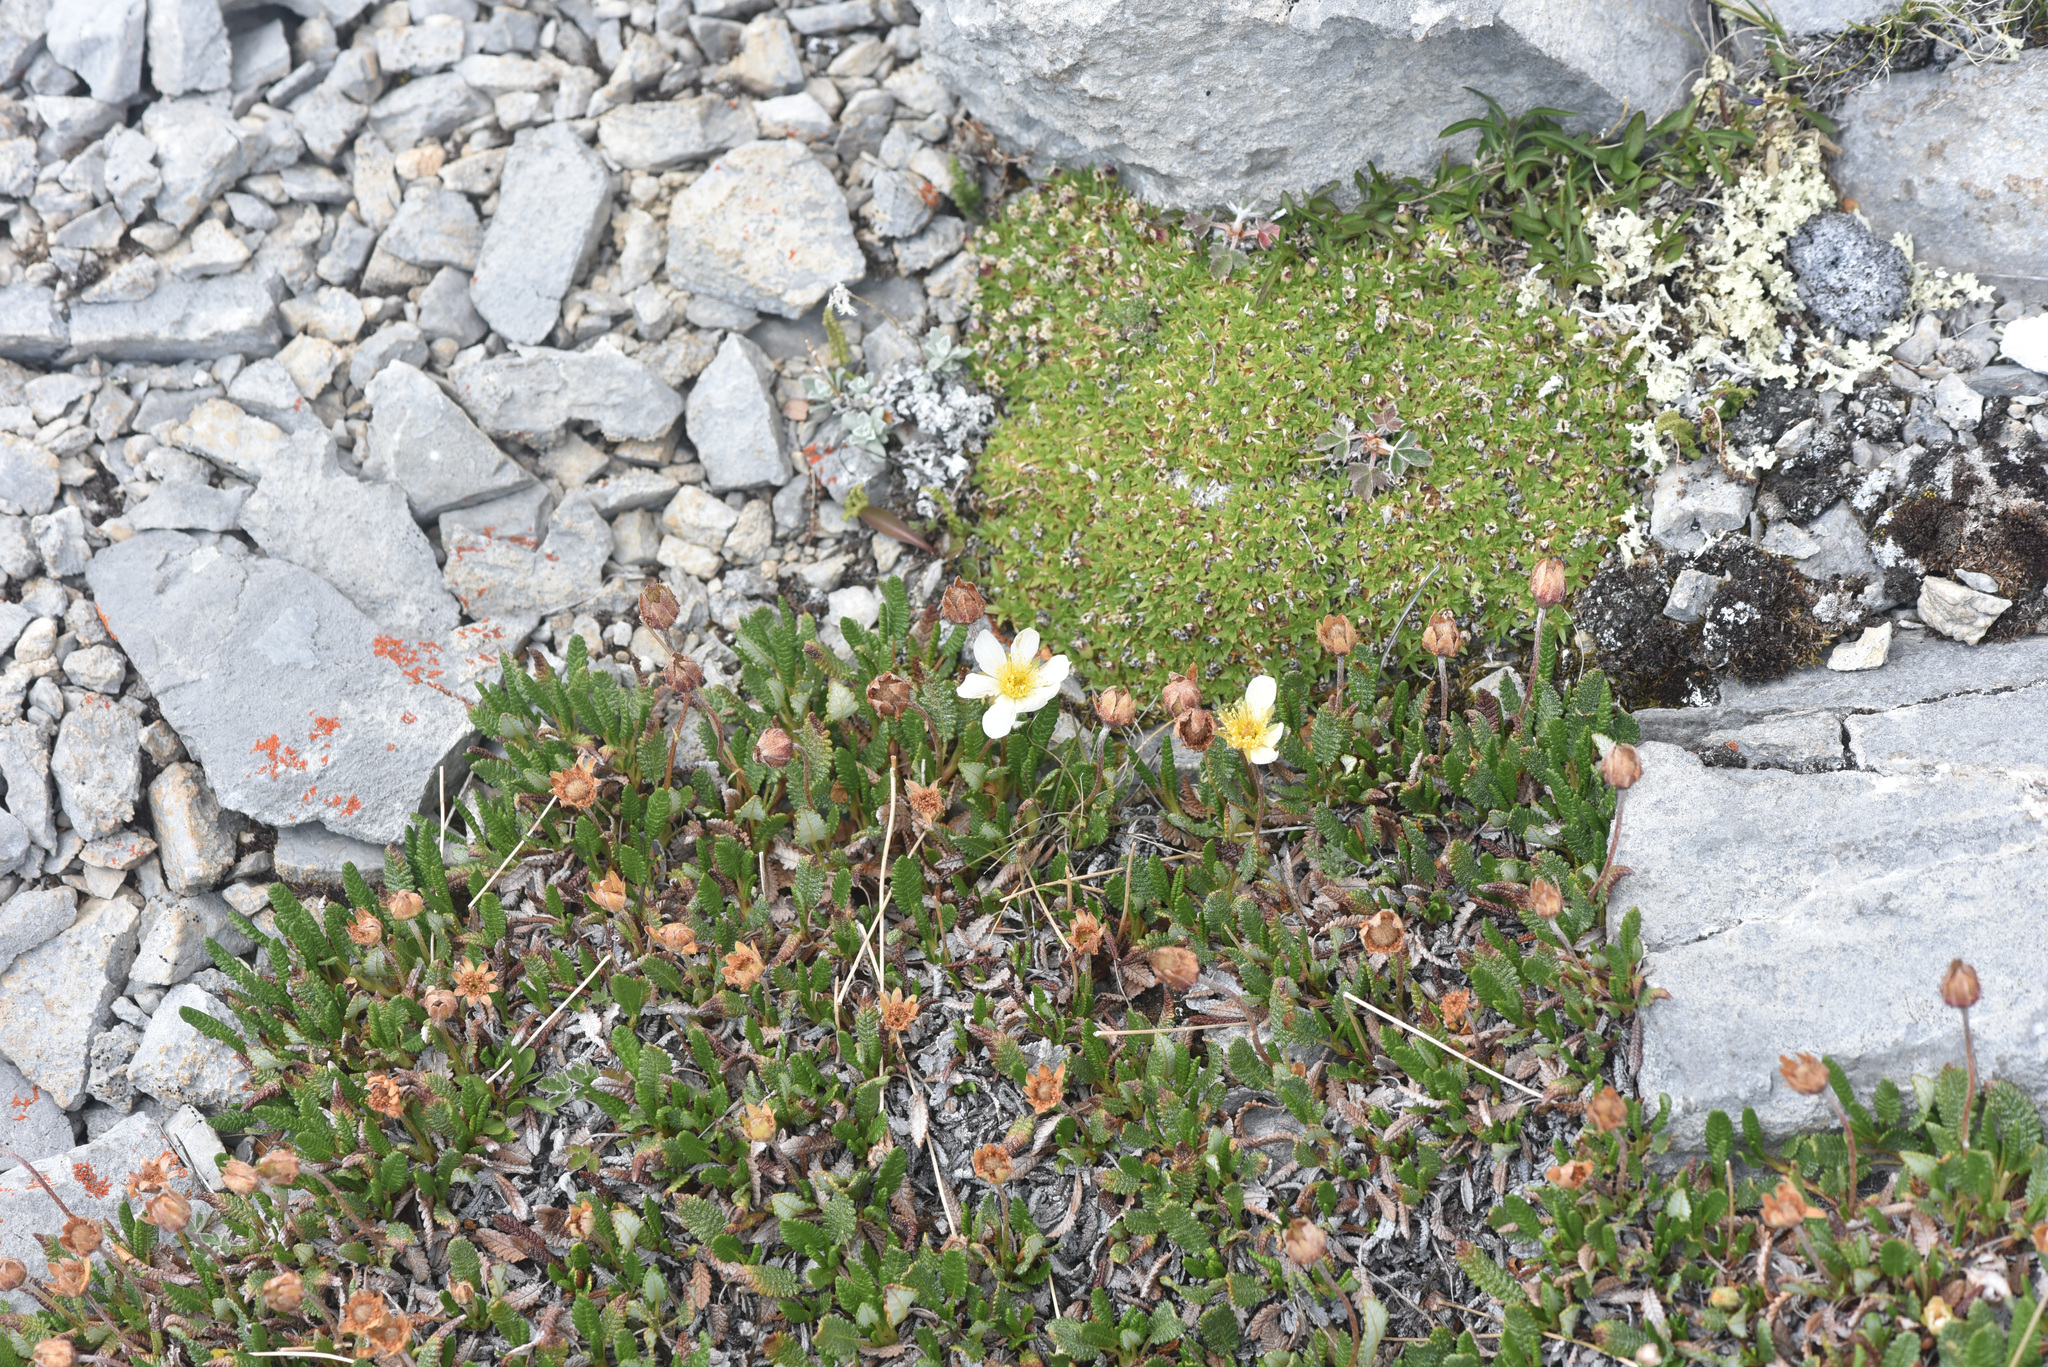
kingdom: Plantae
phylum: Tracheophyta
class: Magnoliopsida
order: Rosales
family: Rosaceae
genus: Dryas
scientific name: Dryas octopetala
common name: Eight-petal mountain-avens
